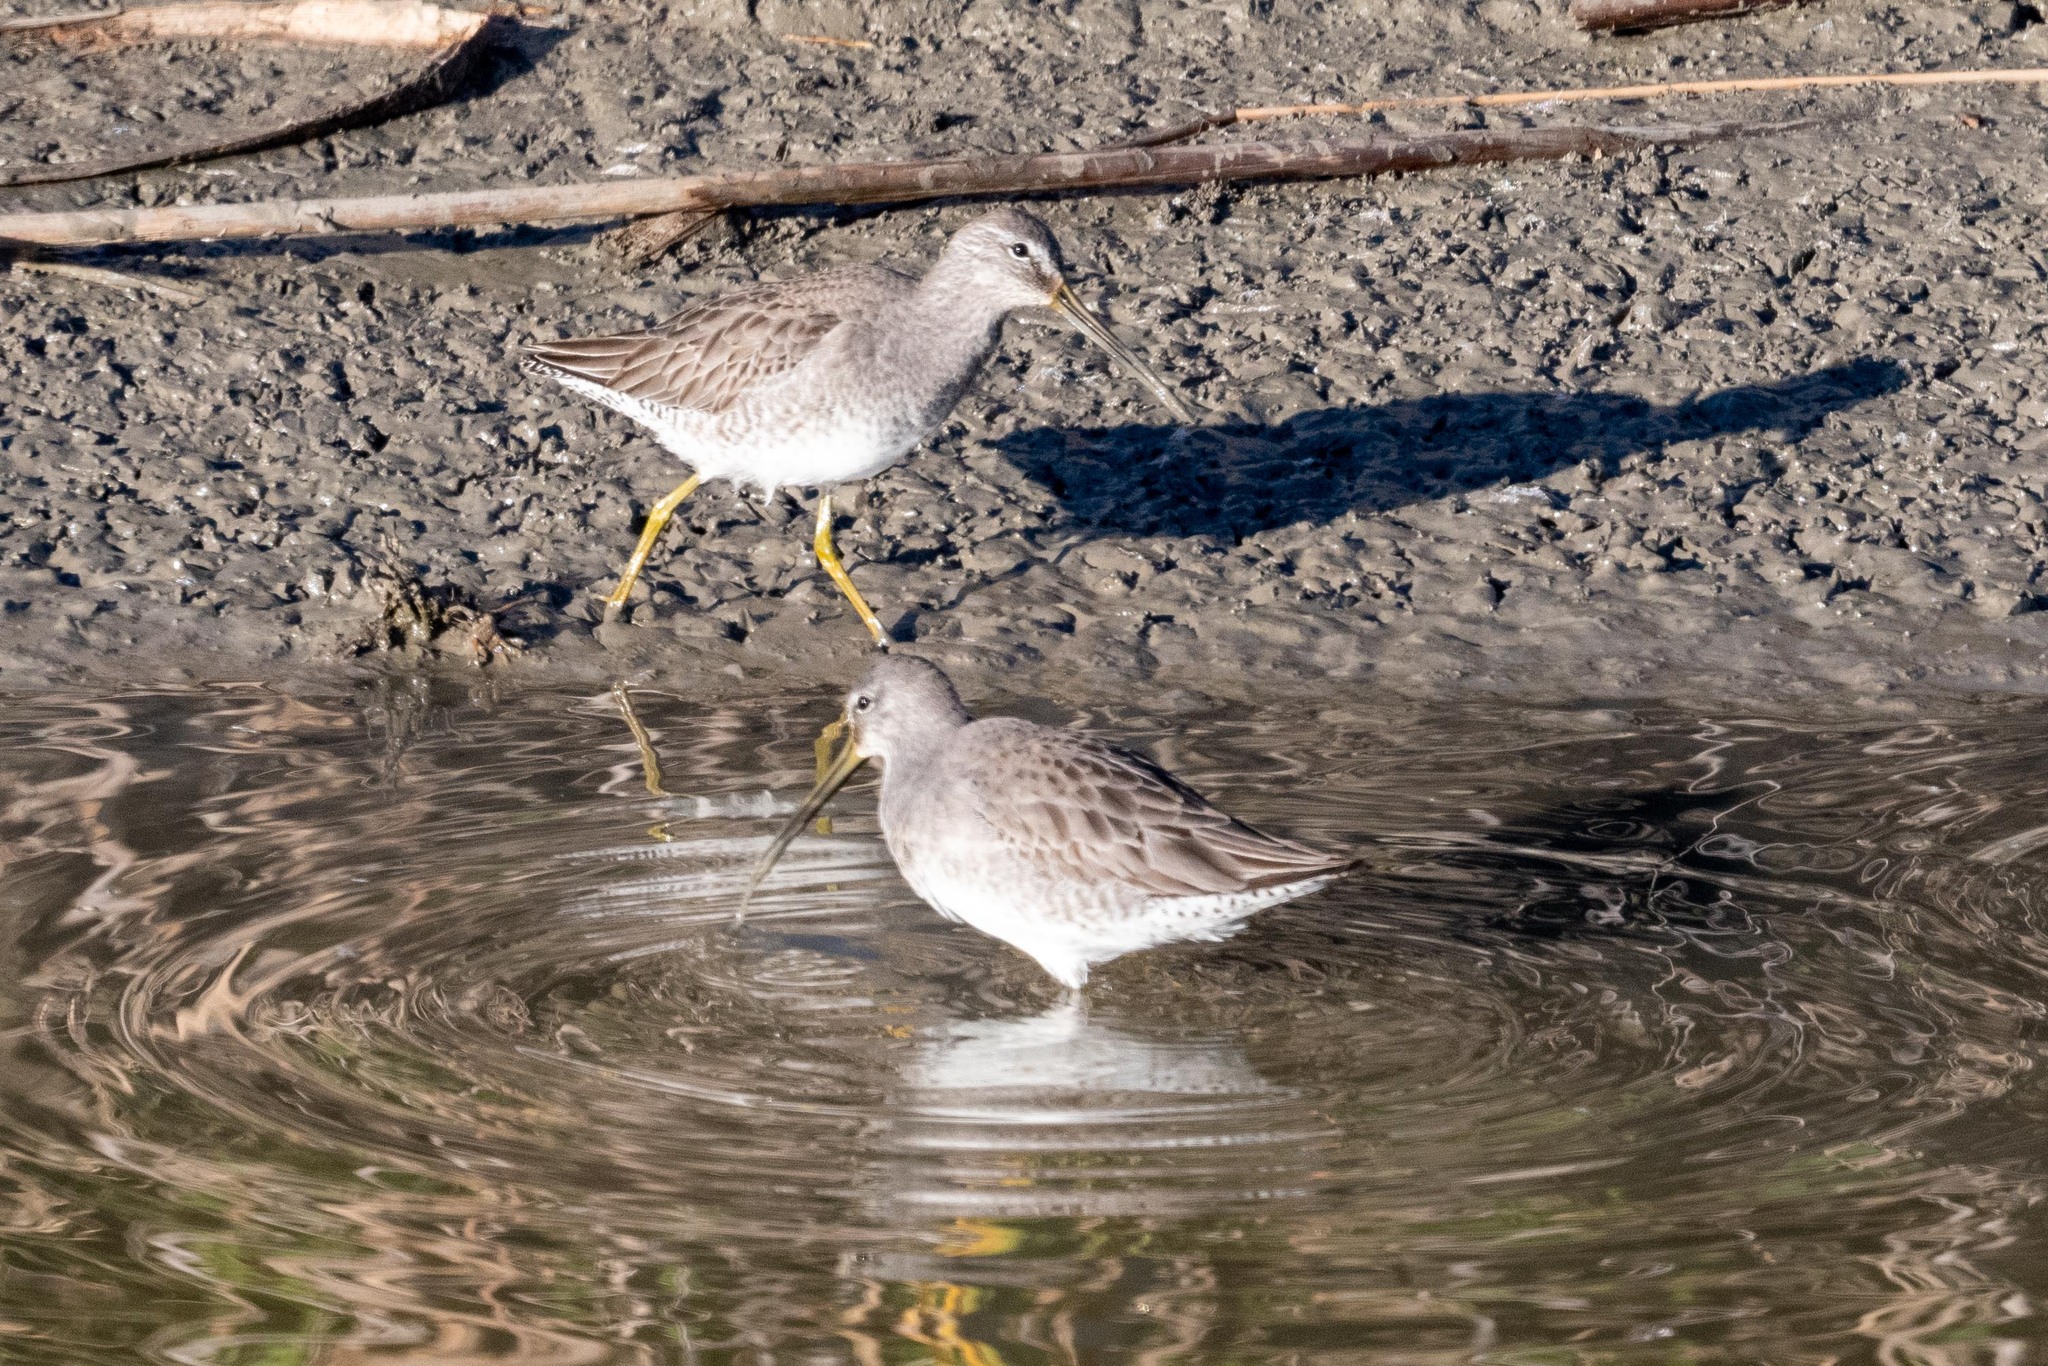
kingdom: Animalia
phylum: Chordata
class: Aves
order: Charadriiformes
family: Scolopacidae
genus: Limnodromus
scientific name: Limnodromus scolopaceus
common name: Long-billed dowitcher
